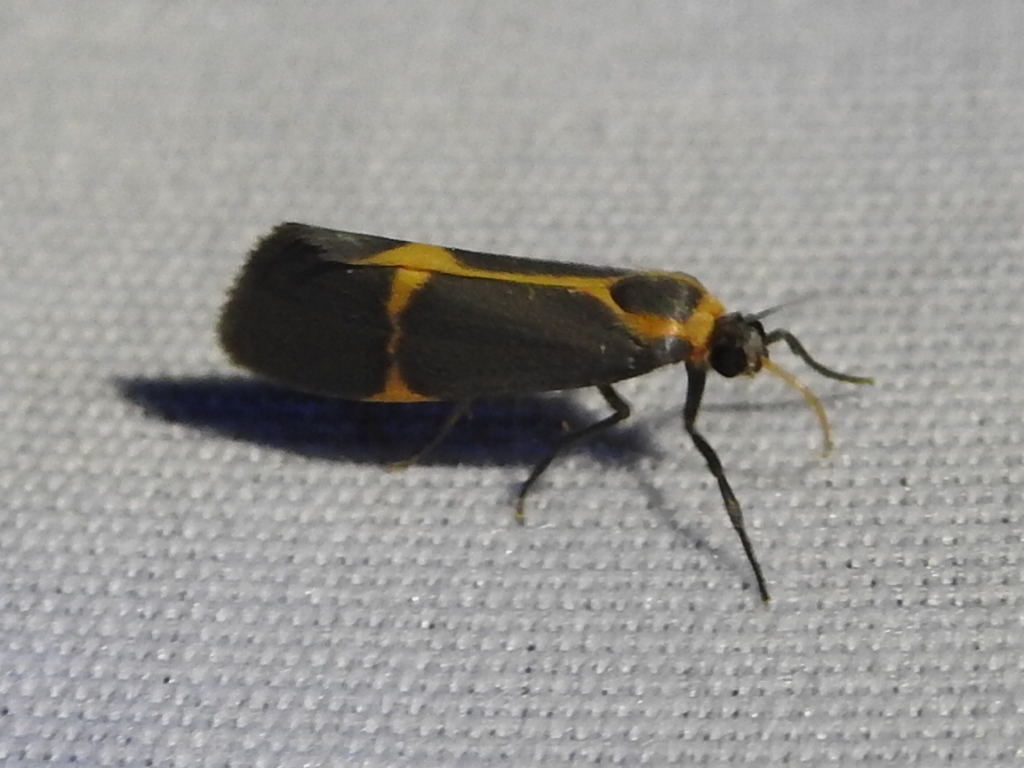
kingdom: Animalia
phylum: Arthropoda
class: Insecta
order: Lepidoptera
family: Erebidae
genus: Cisthene
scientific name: Cisthene barnesii
